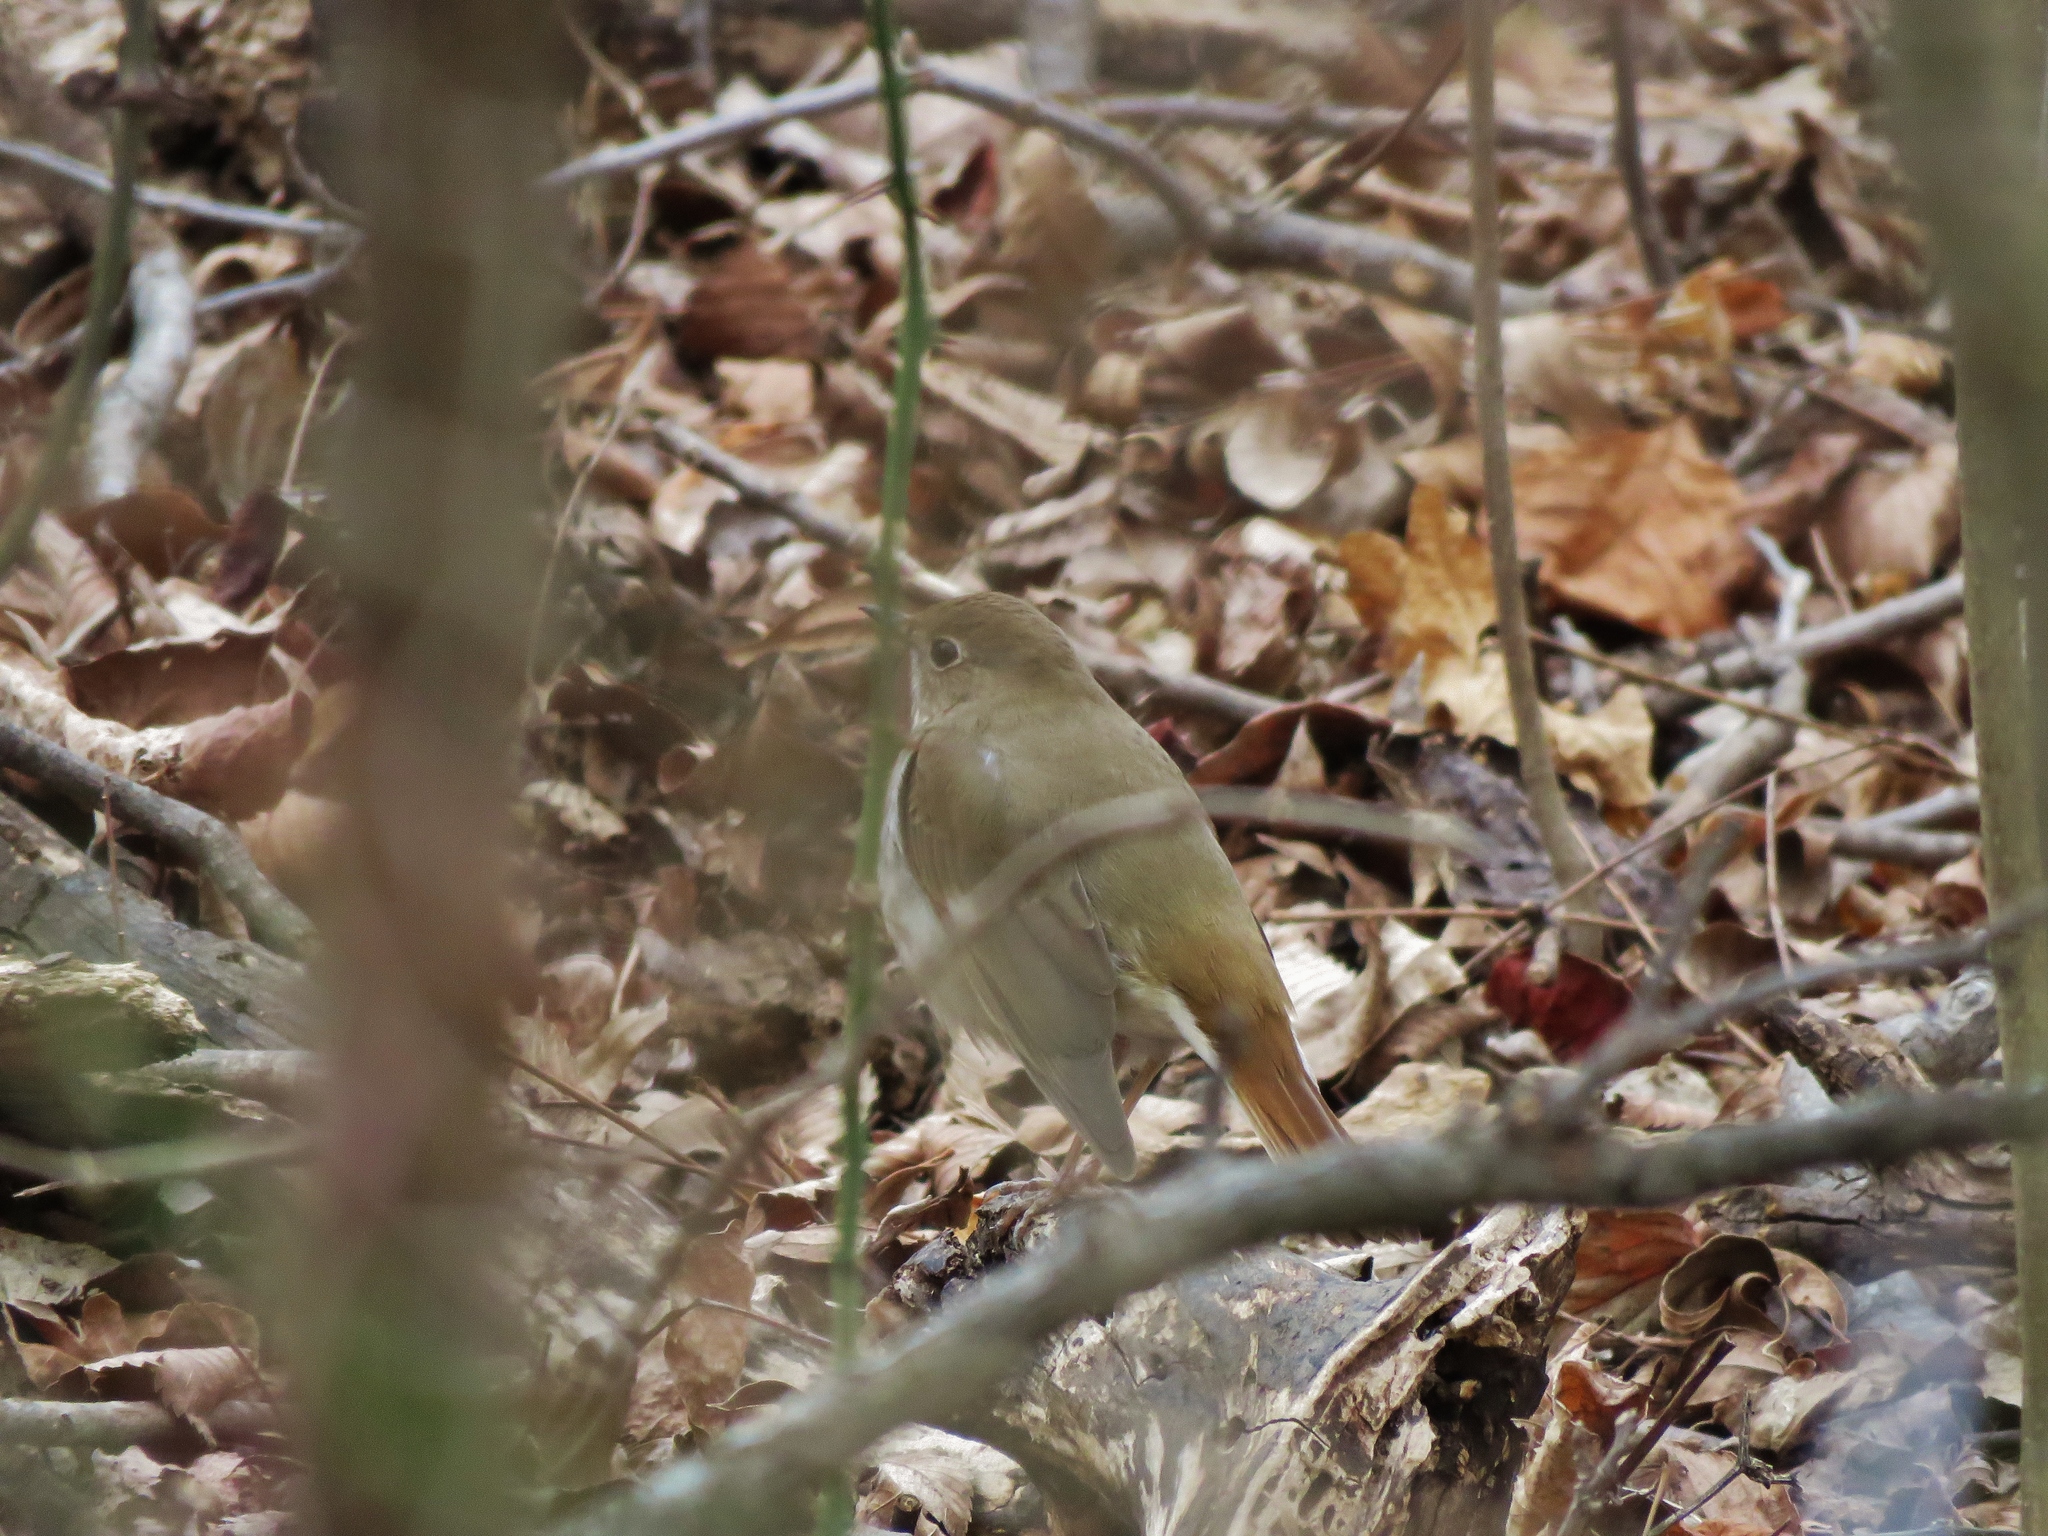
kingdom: Animalia
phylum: Chordata
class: Aves
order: Passeriformes
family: Turdidae
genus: Catharus
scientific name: Catharus guttatus
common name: Hermit thrush
